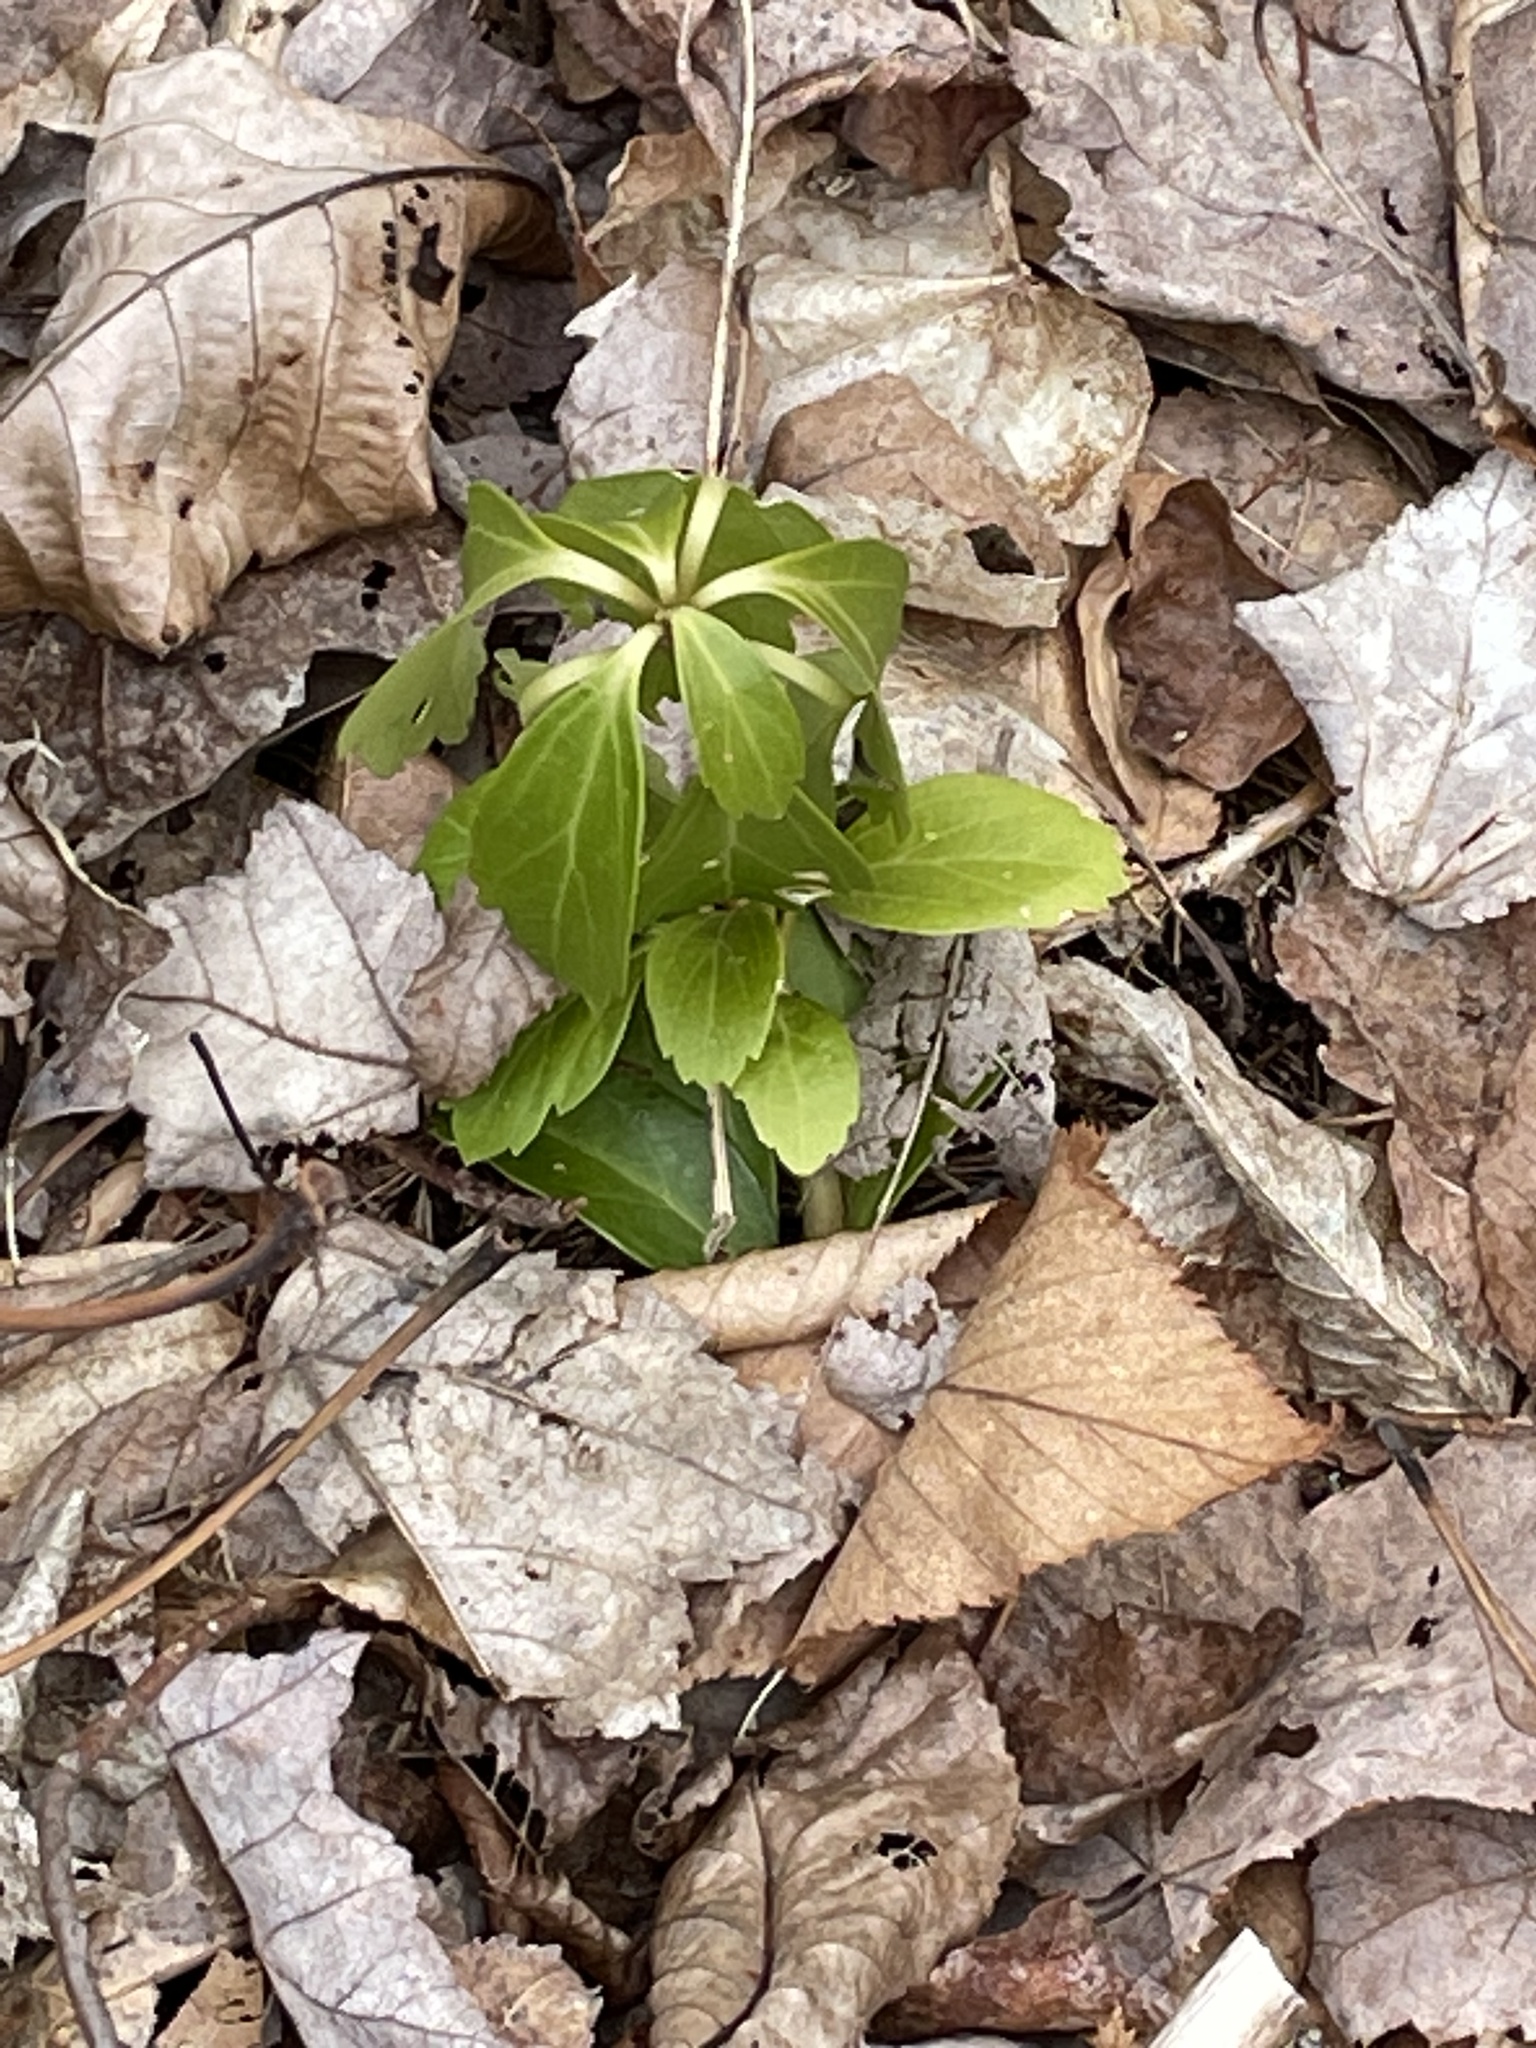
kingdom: Plantae
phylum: Tracheophyta
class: Magnoliopsida
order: Buxales
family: Buxaceae
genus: Pachysandra
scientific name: Pachysandra terminalis
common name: Japanese pachysandra
